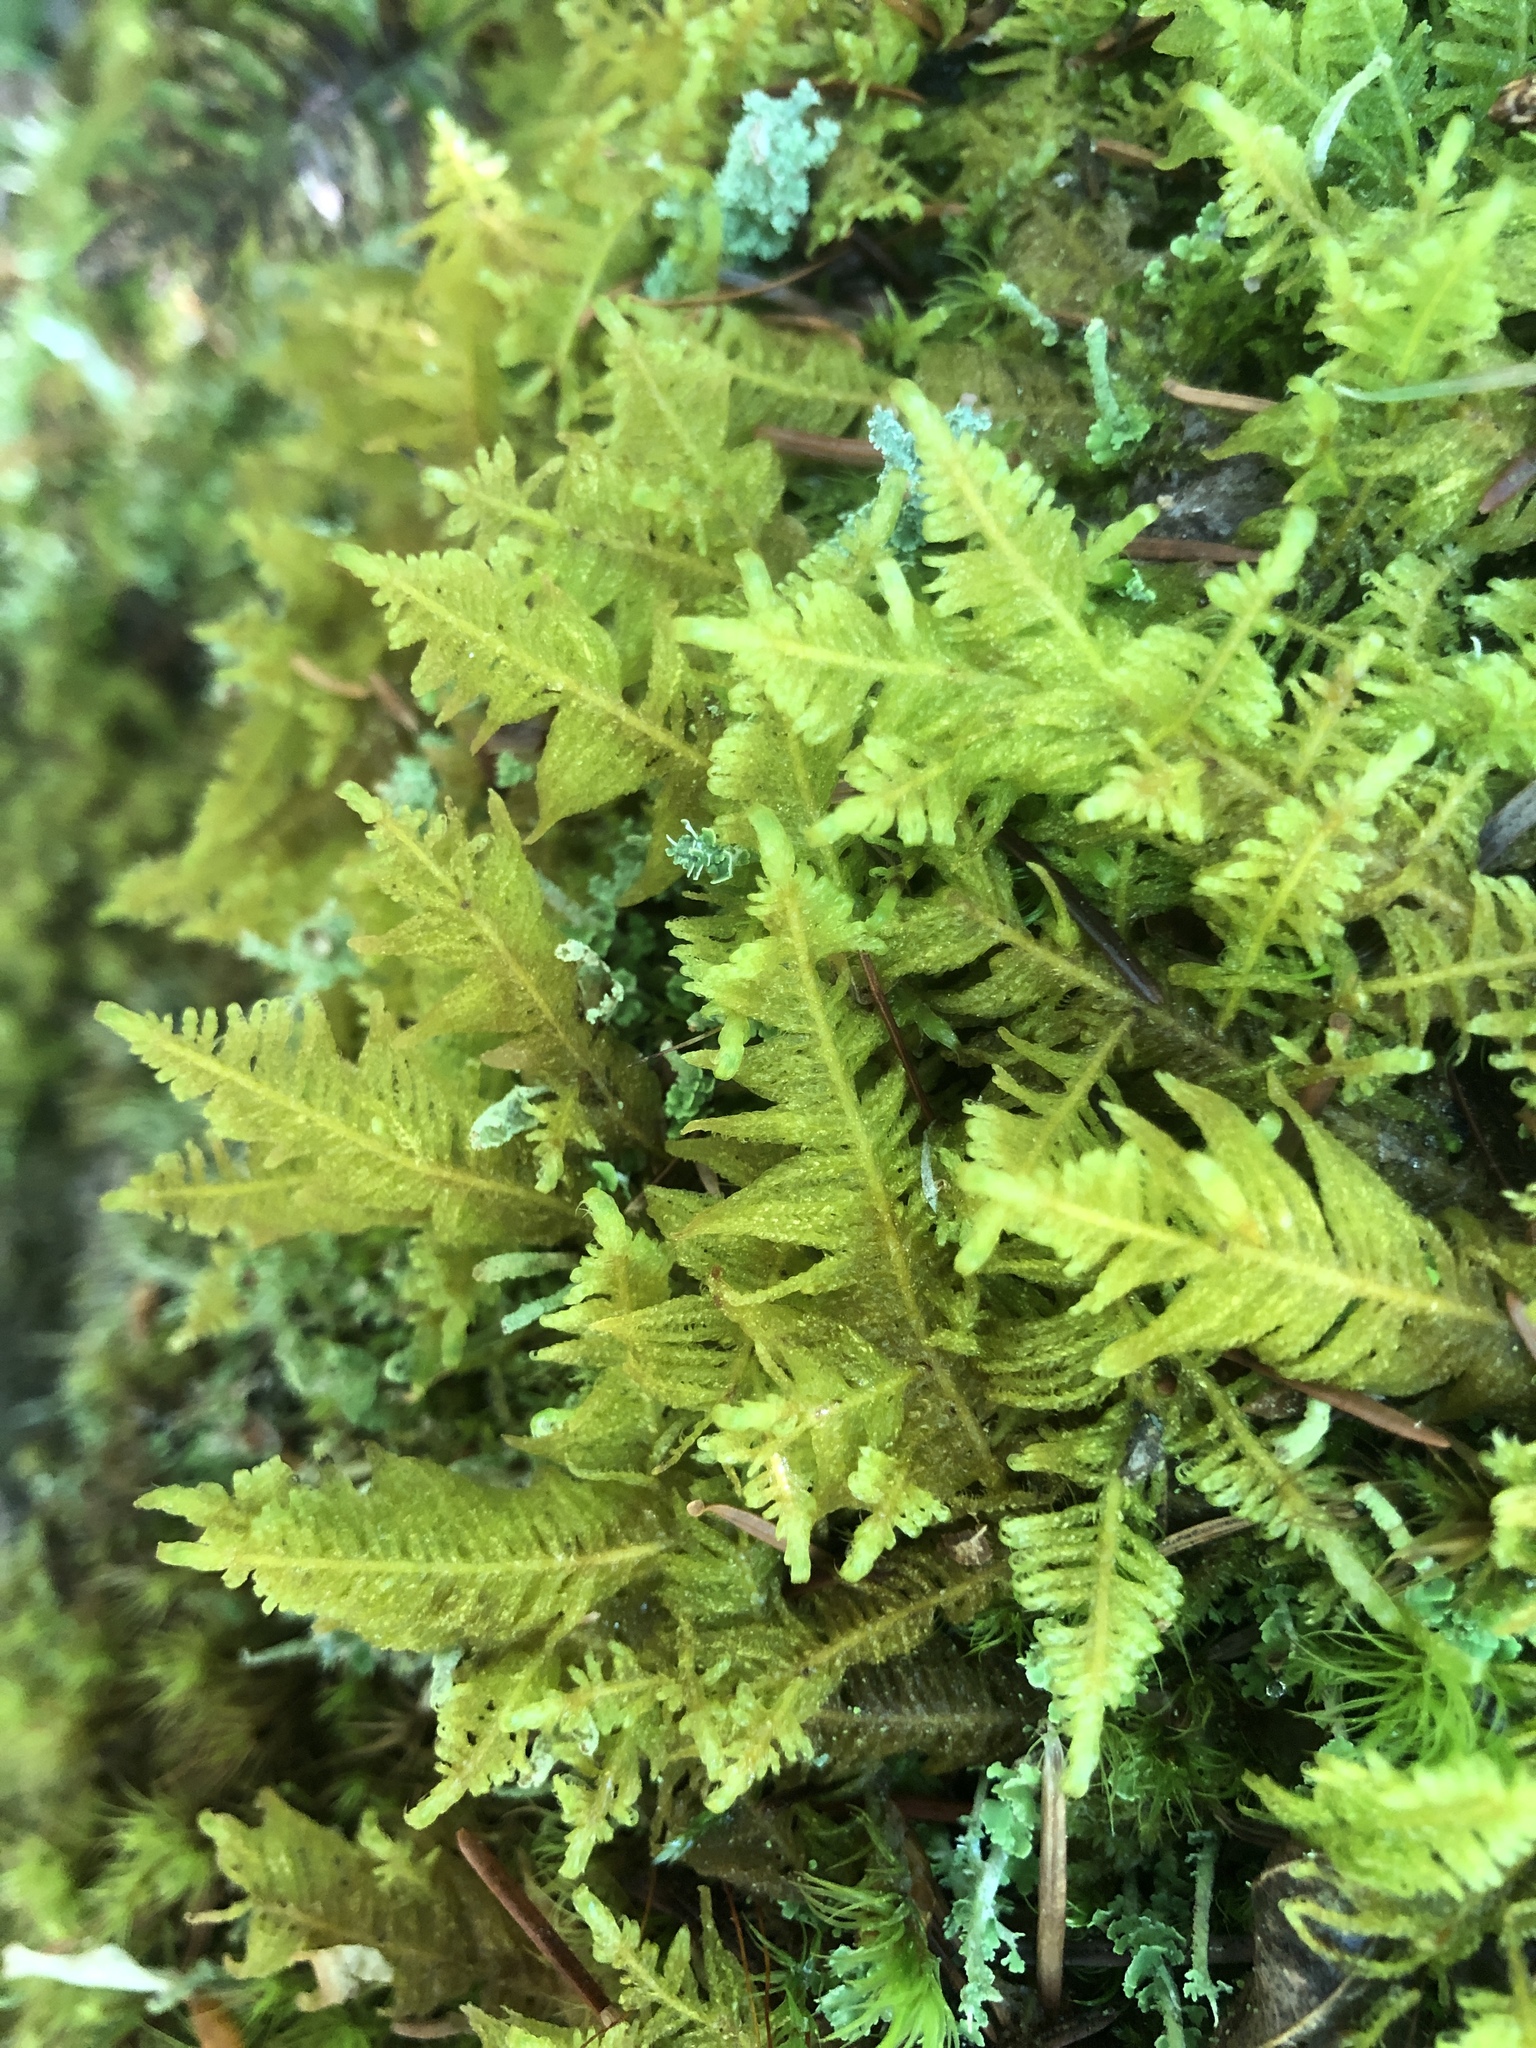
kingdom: Plantae
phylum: Bryophyta
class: Bryopsida
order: Hypnales
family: Pylaisiaceae
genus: Ptilium
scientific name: Ptilium crista-castrensis
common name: Knight's plume moss
